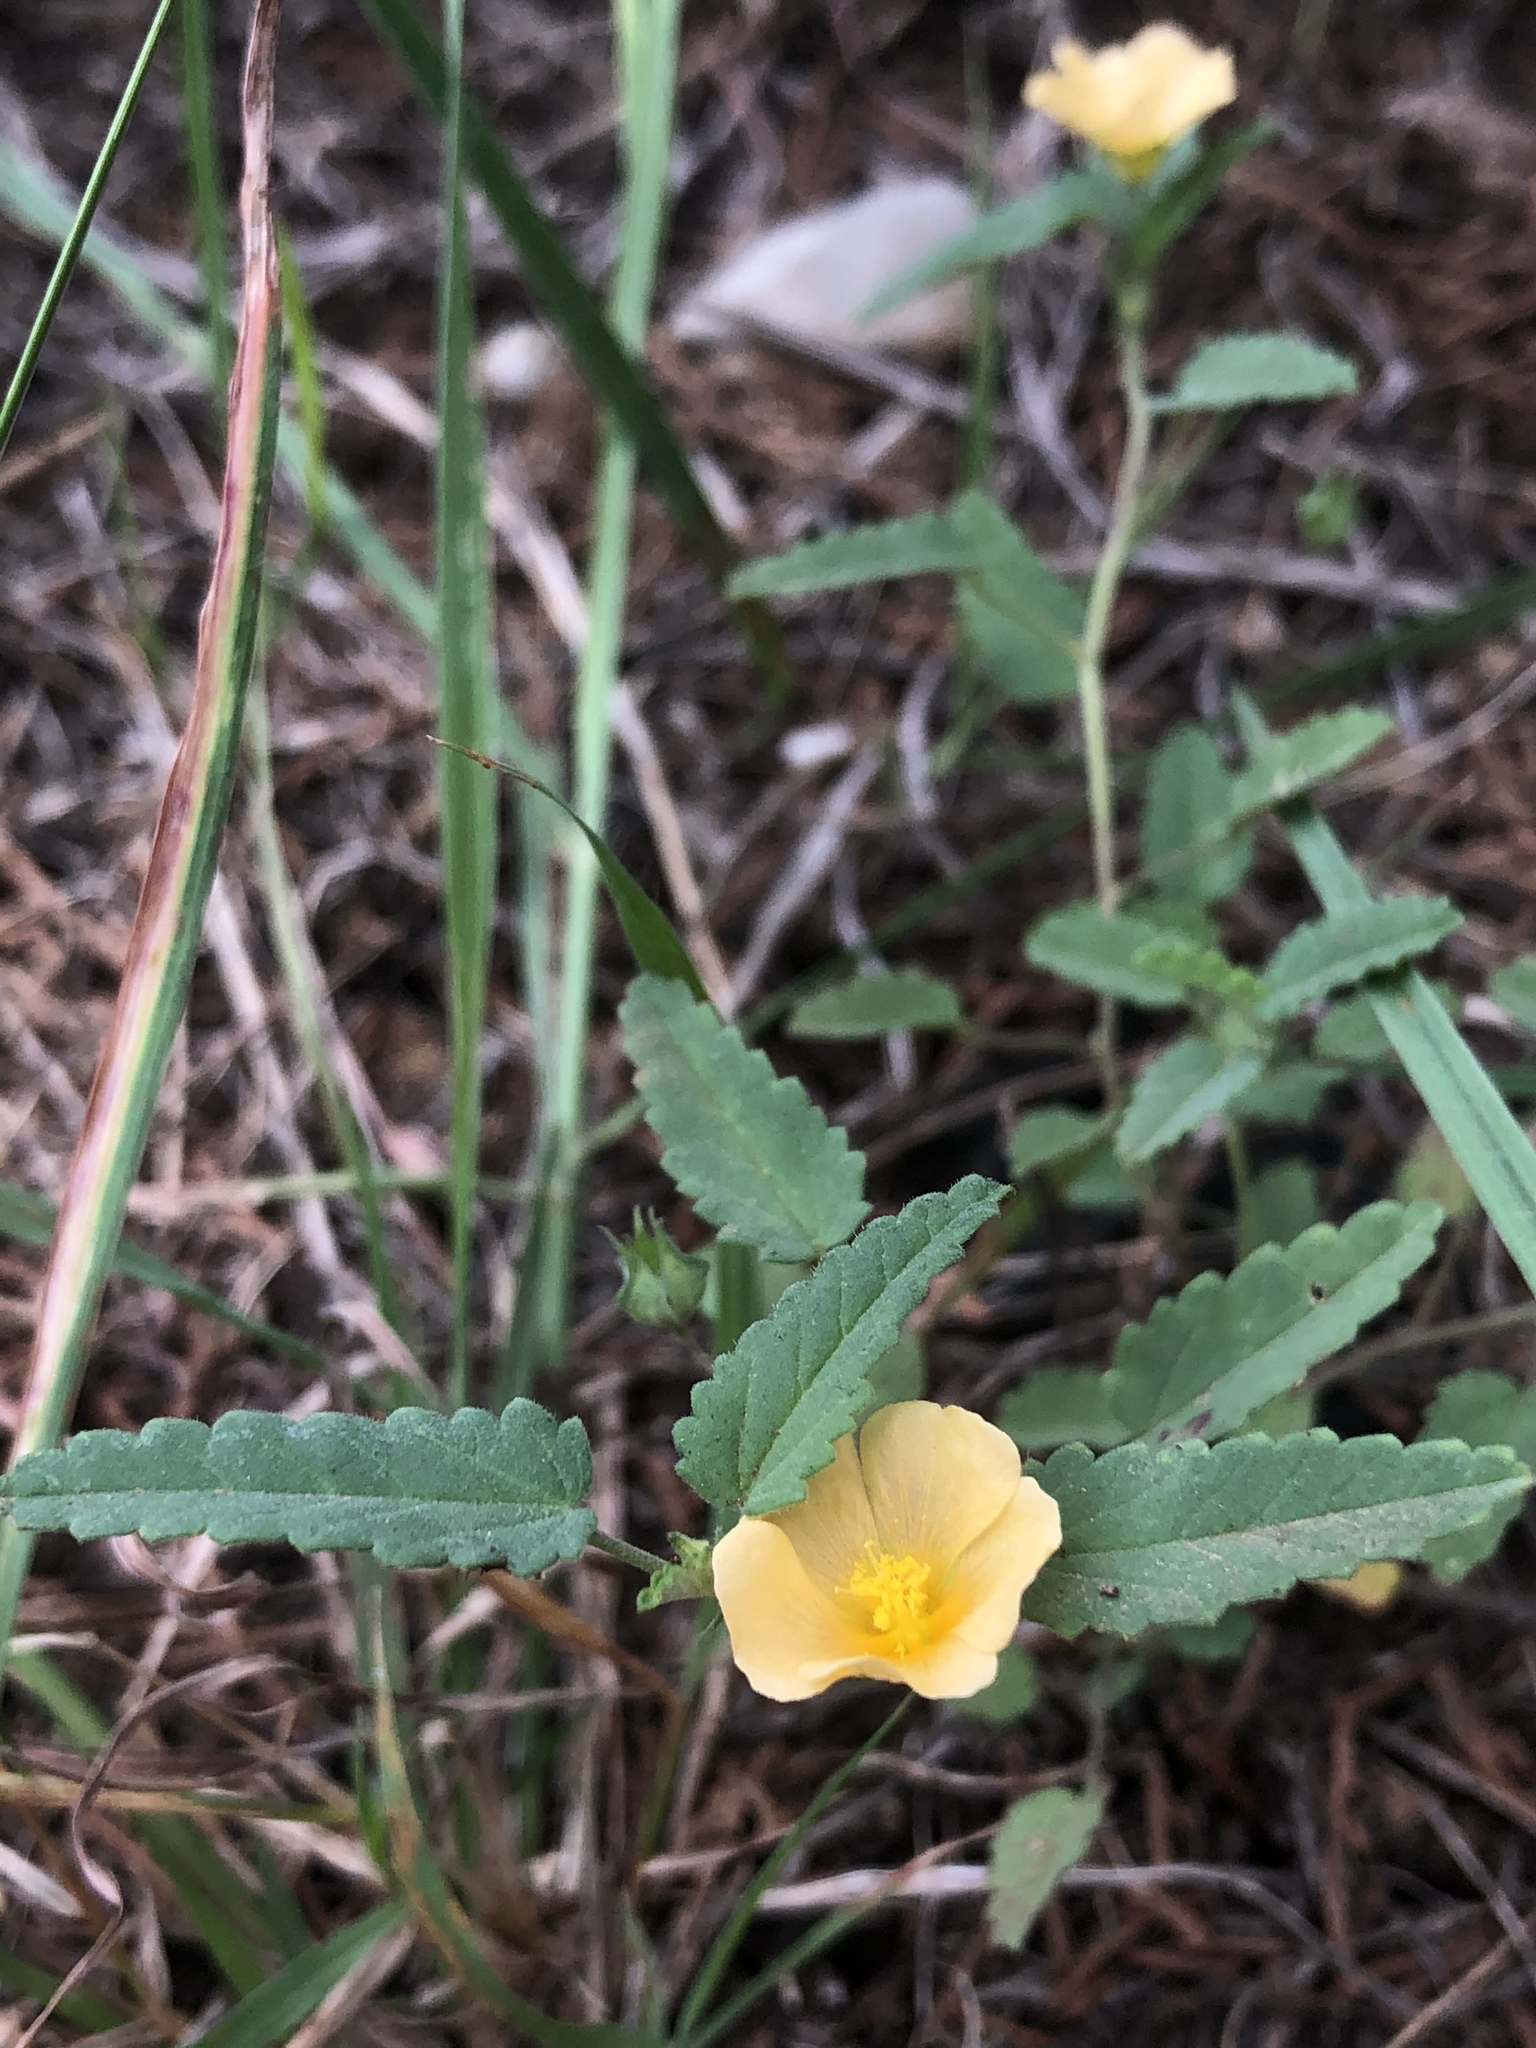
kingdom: Plantae
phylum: Tracheophyta
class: Magnoliopsida
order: Malvales
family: Malvaceae
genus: Sida
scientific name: Sida abutilifolia
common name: Spreading fanpetals
